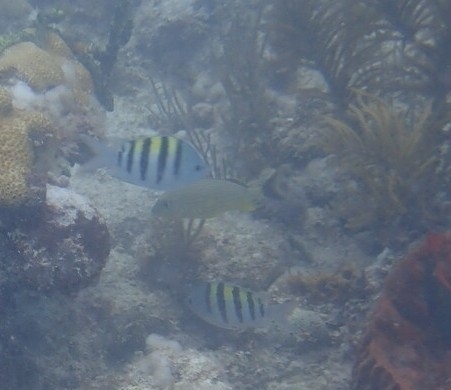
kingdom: Animalia
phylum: Chordata
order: Perciformes
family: Pomacentridae
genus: Abudefduf
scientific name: Abudefduf saxatilis
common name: Sergeant major
